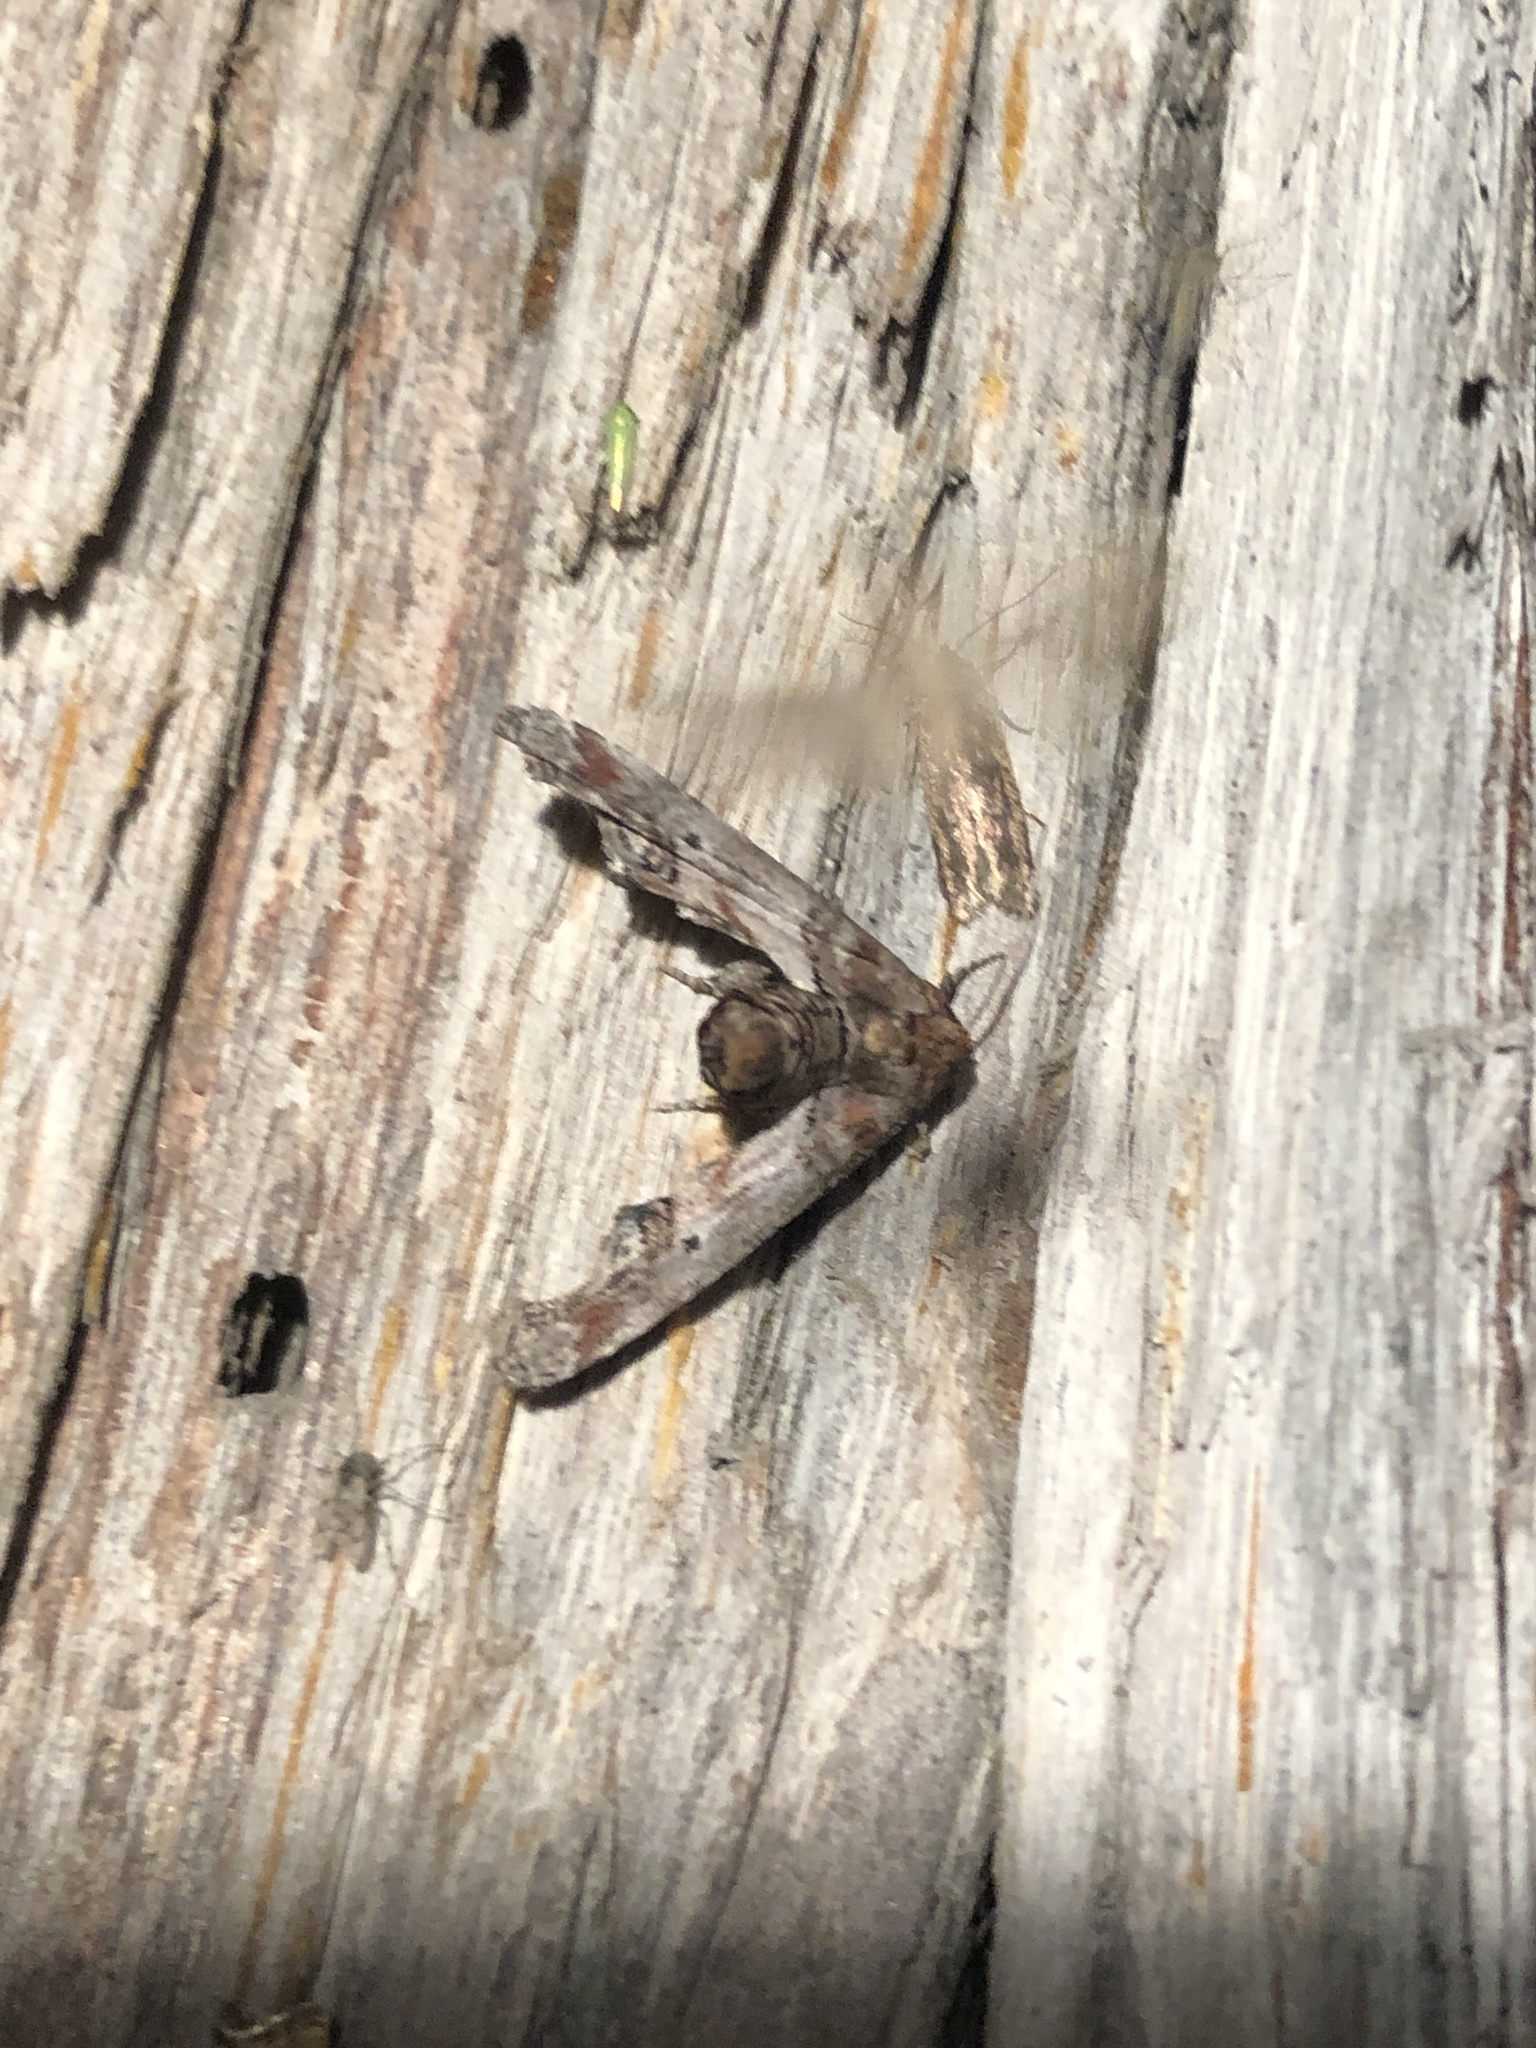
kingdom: Animalia
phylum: Arthropoda
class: Insecta
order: Lepidoptera
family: Euteliidae
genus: Marathyssa
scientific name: Marathyssa inficita
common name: Dark marathyssa moth
